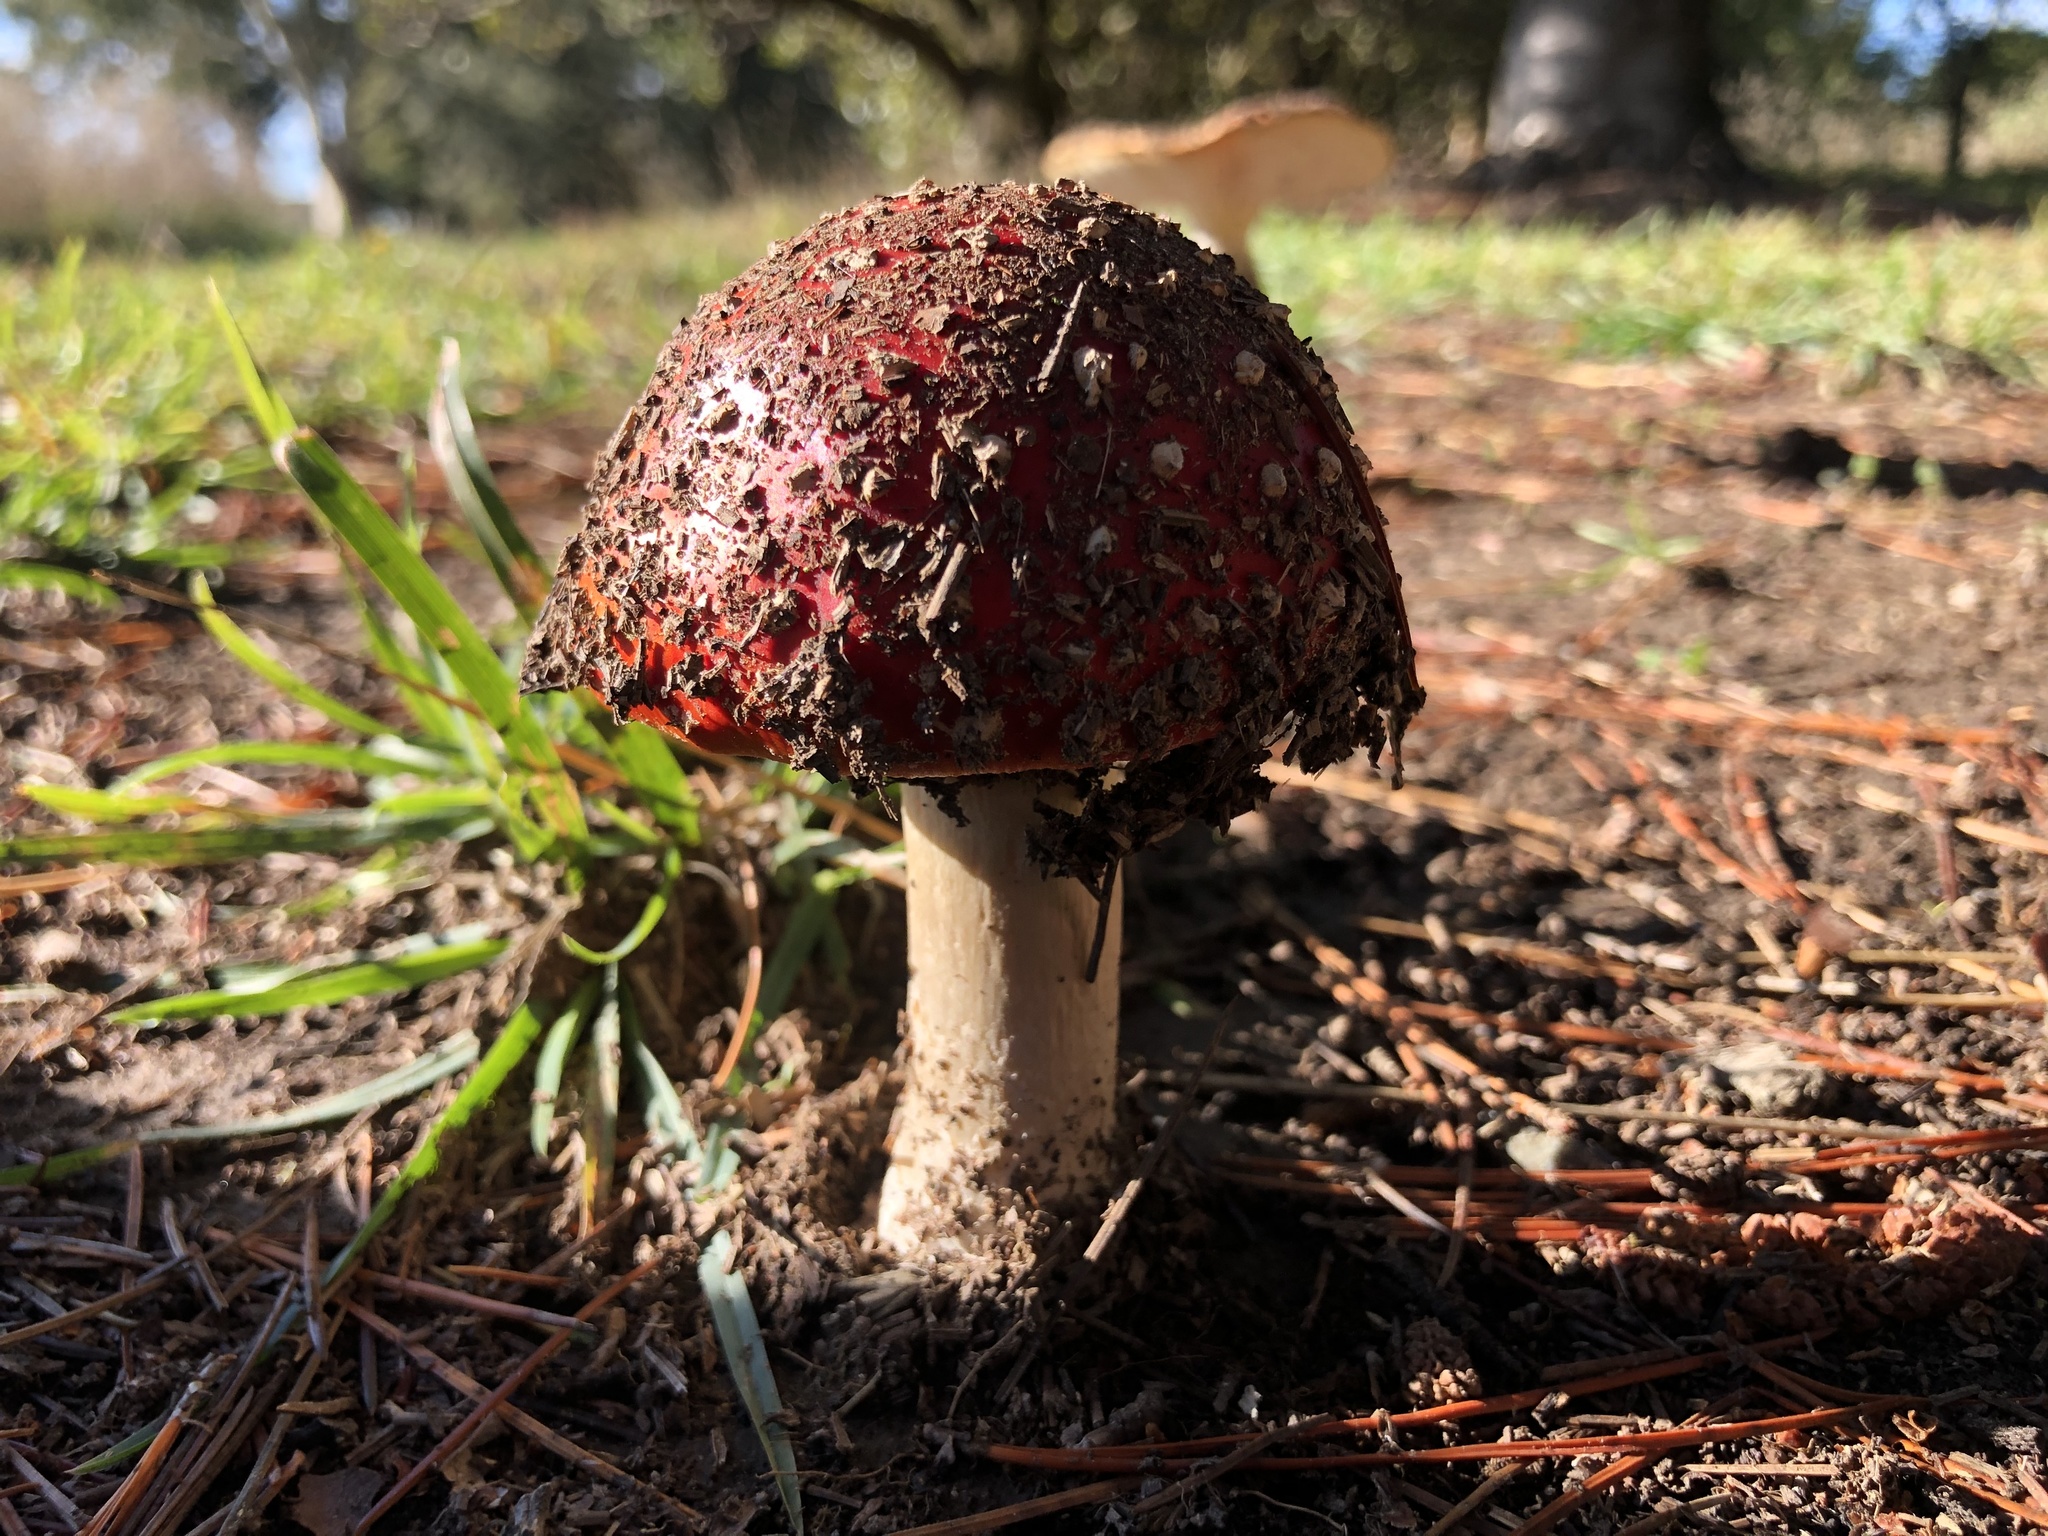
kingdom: Fungi
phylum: Basidiomycota
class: Agaricomycetes
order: Agaricales
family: Amanitaceae
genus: Amanita
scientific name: Amanita muscaria
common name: Fly agaric
